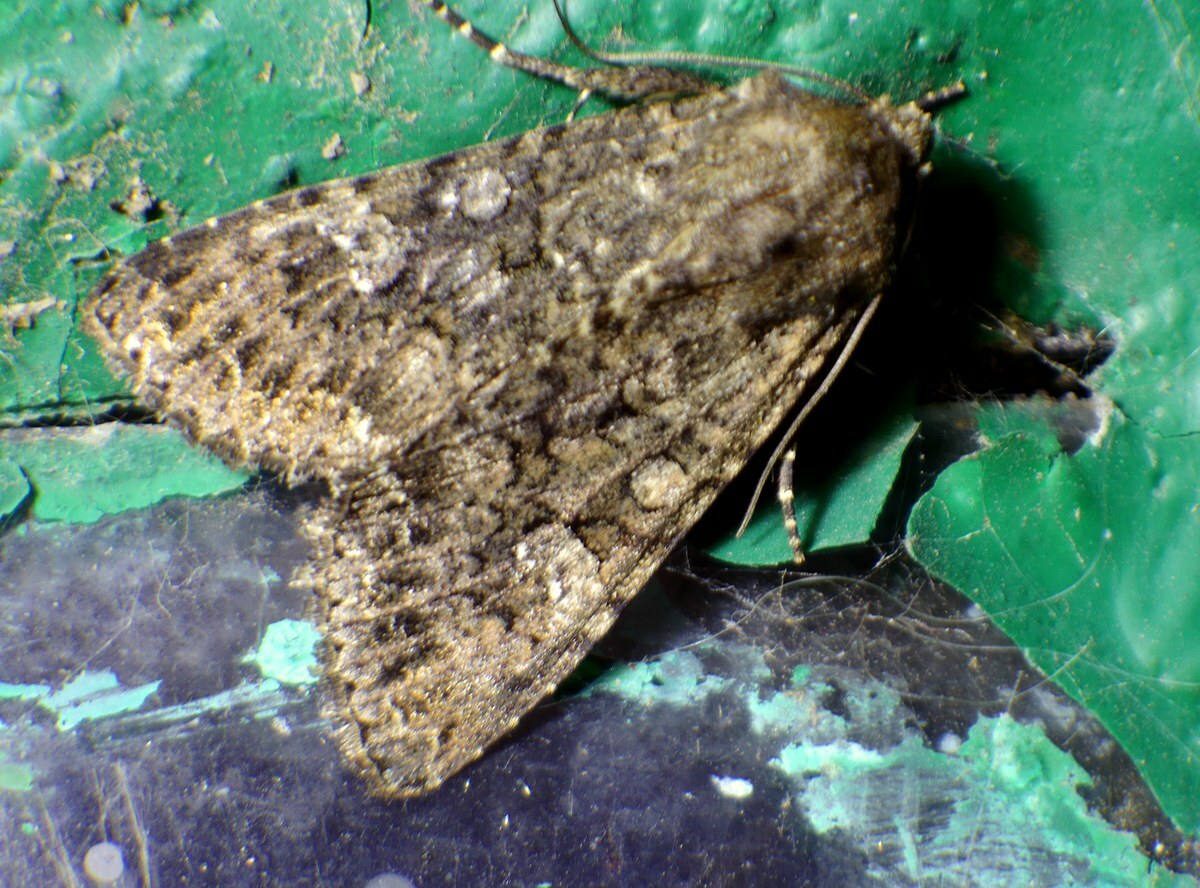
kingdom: Animalia
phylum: Arthropoda
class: Insecta
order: Lepidoptera
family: Noctuidae
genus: Mamestra
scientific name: Mamestra brassicae
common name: Cabbage moth
